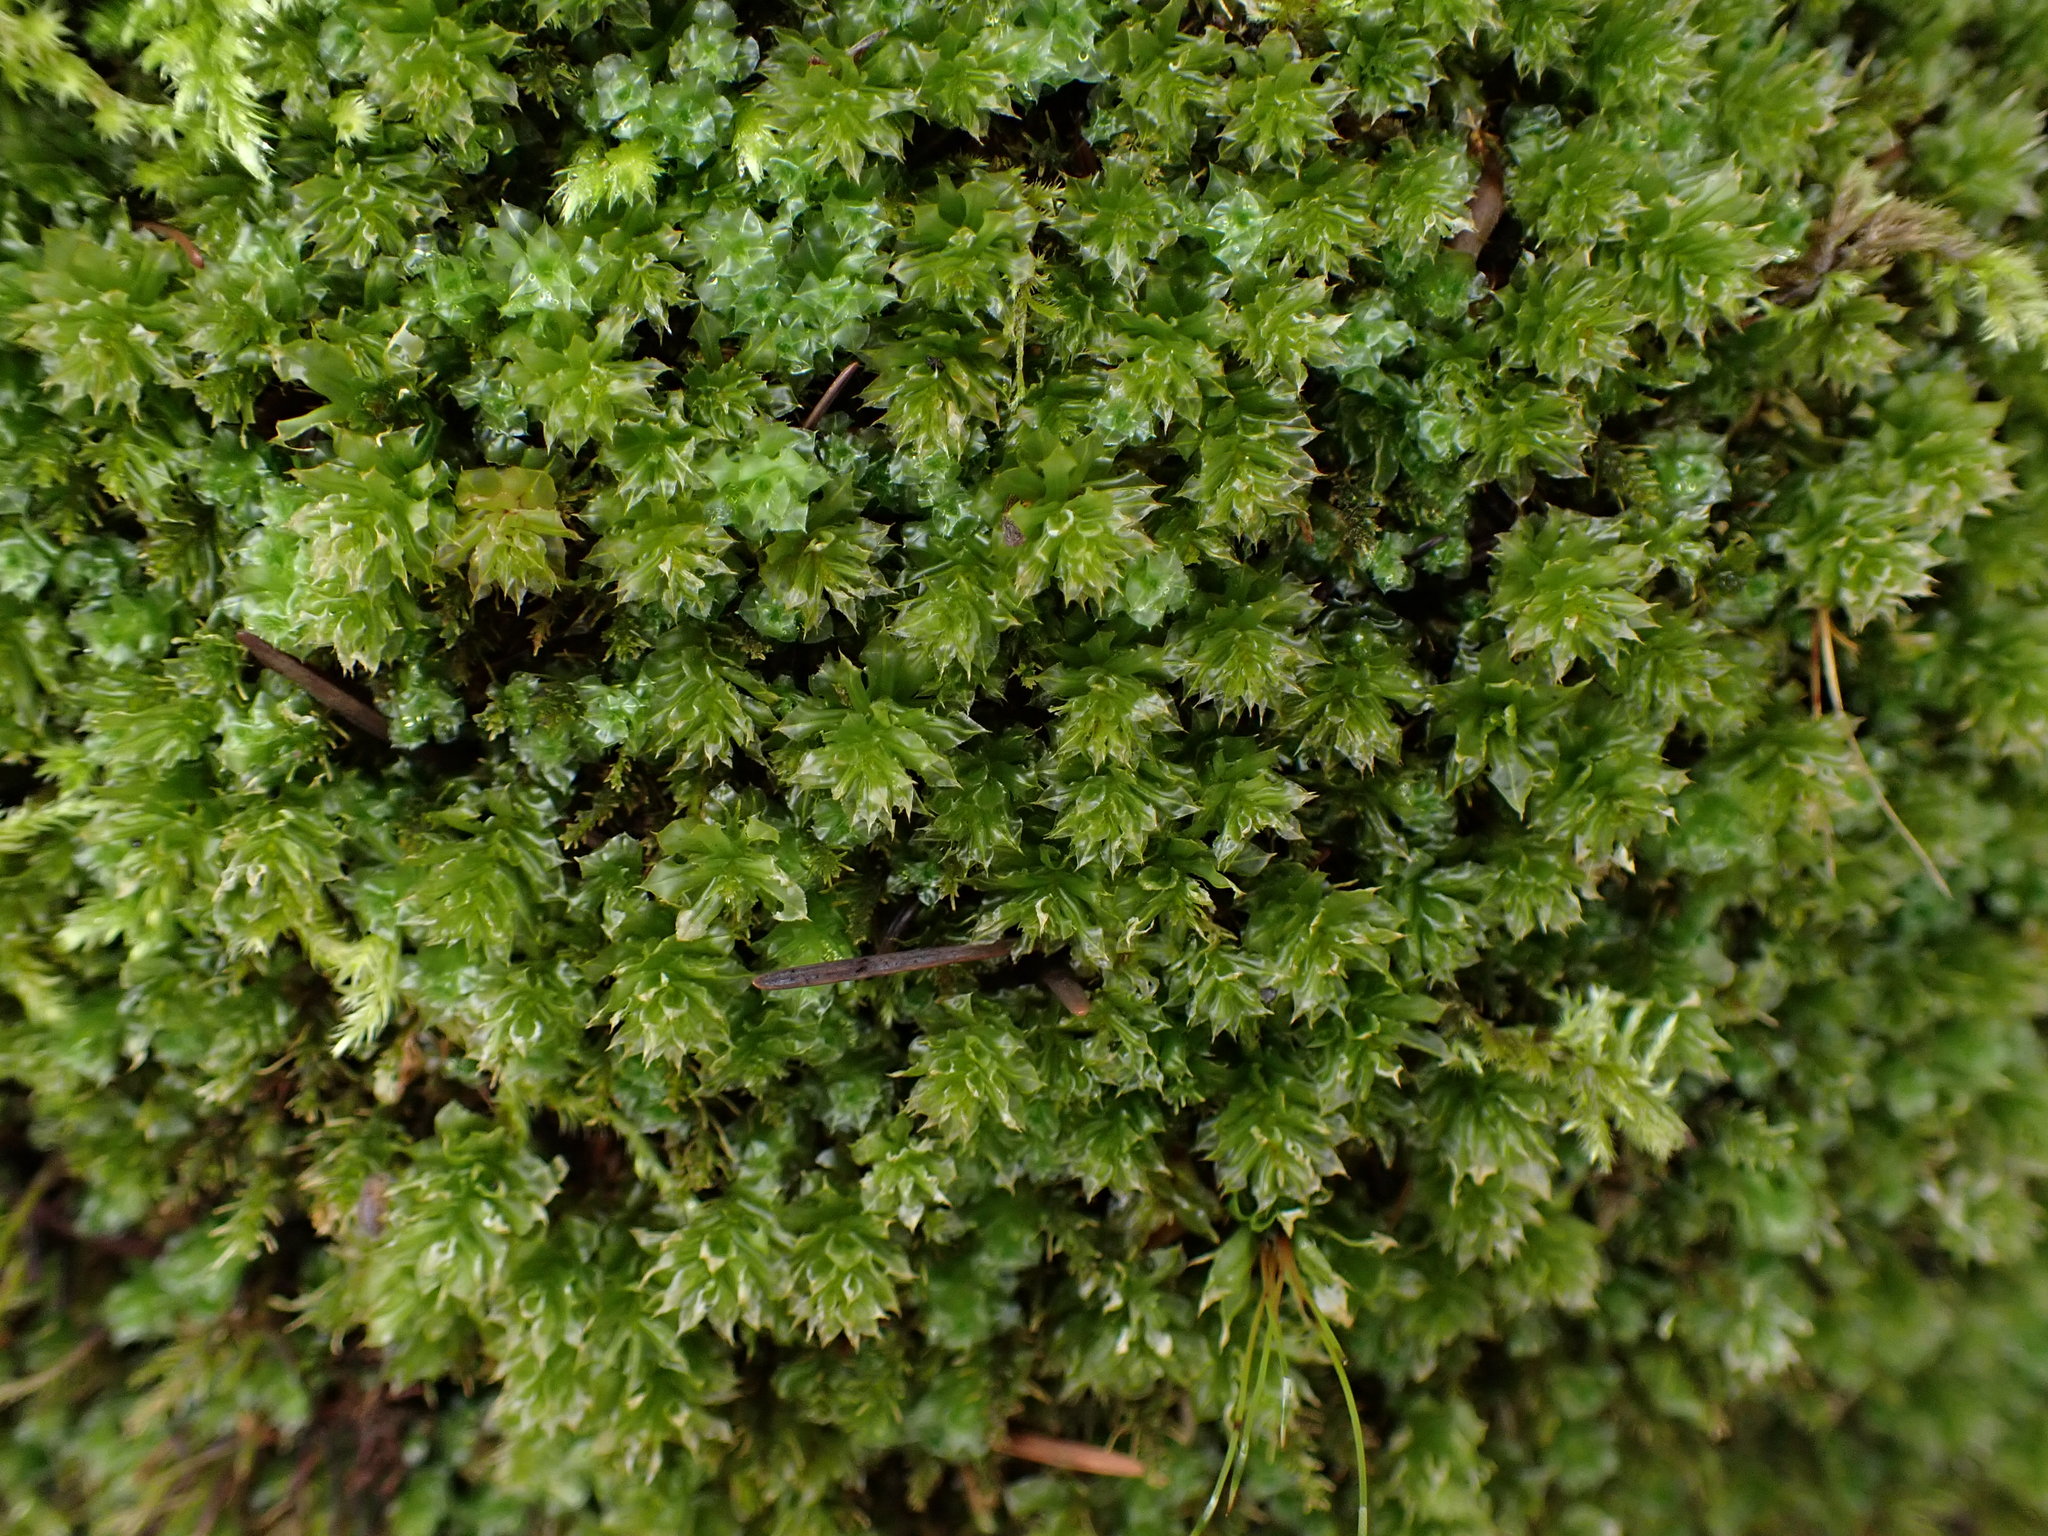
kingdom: Plantae
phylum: Bryophyta
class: Bryopsida
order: Bryales
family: Mniaceae
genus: Plagiomnium
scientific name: Plagiomnium venustum
